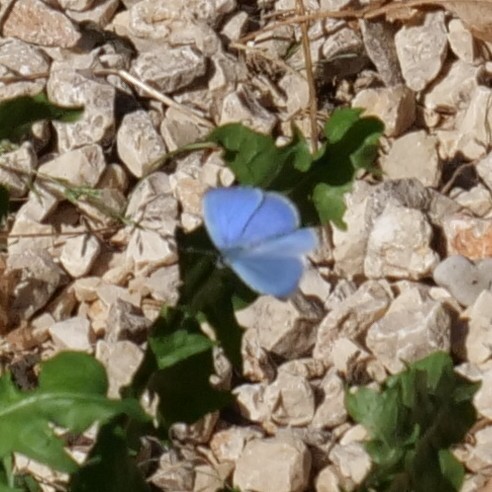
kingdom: Animalia
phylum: Arthropoda
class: Insecta
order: Lepidoptera
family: Lycaenidae
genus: Celastrina
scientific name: Celastrina argiolus
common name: Holly blue
